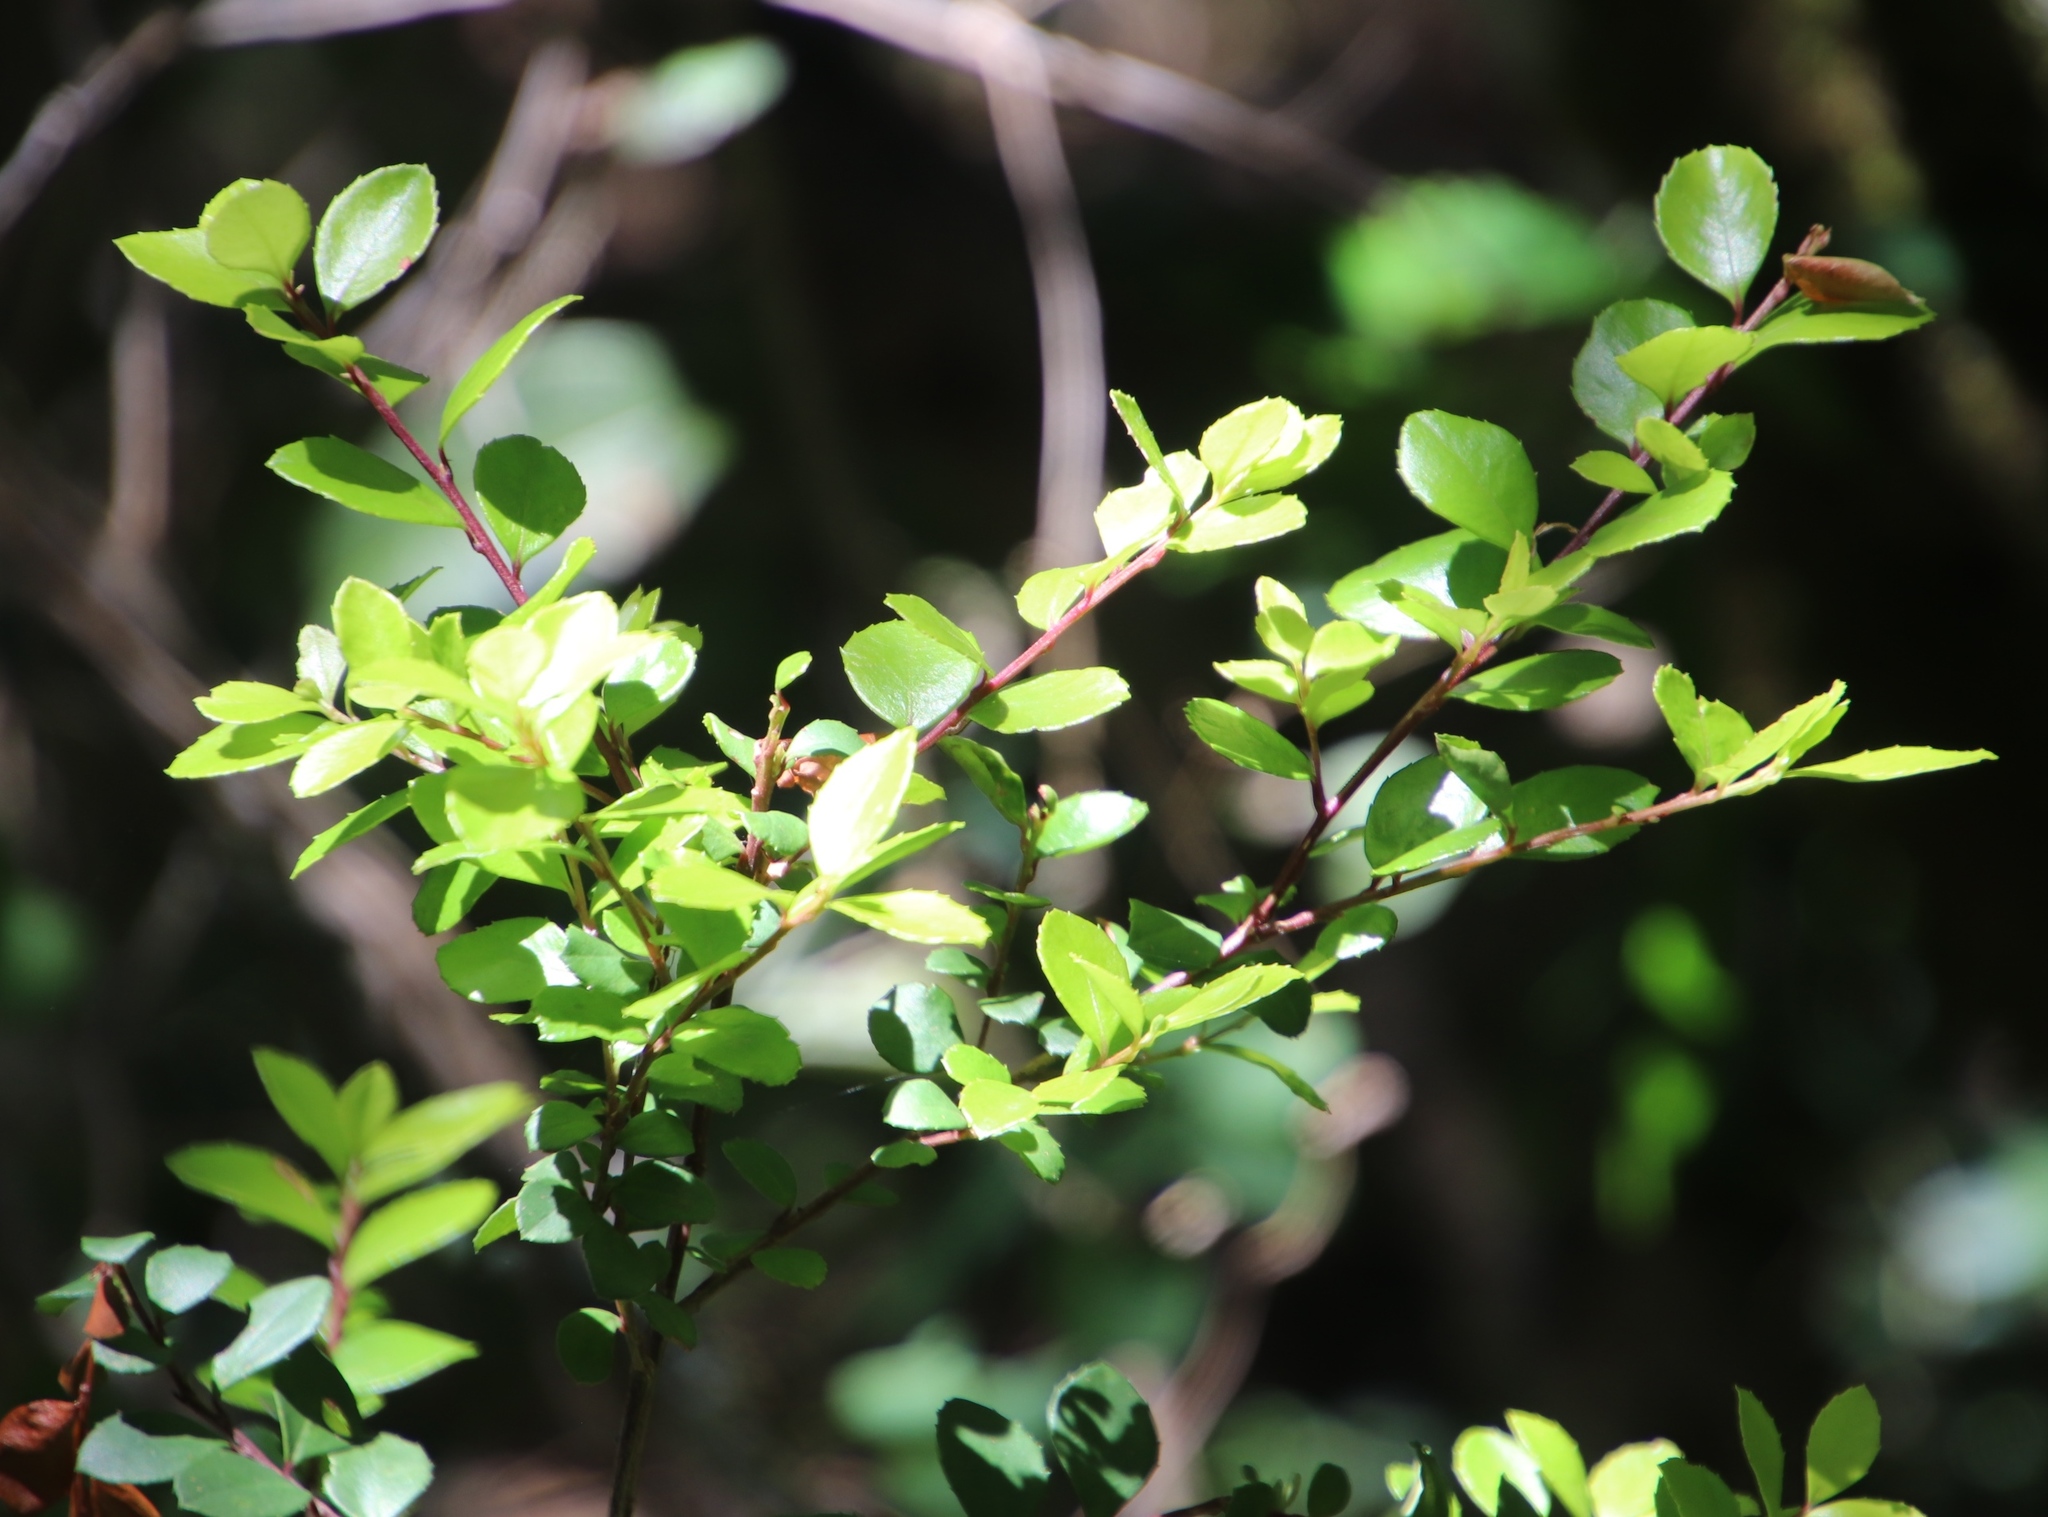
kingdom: Plantae
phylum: Tracheophyta
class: Magnoliopsida
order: Ericales
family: Primulaceae
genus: Myrsine
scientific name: Myrsine africana
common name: African-boxwood
